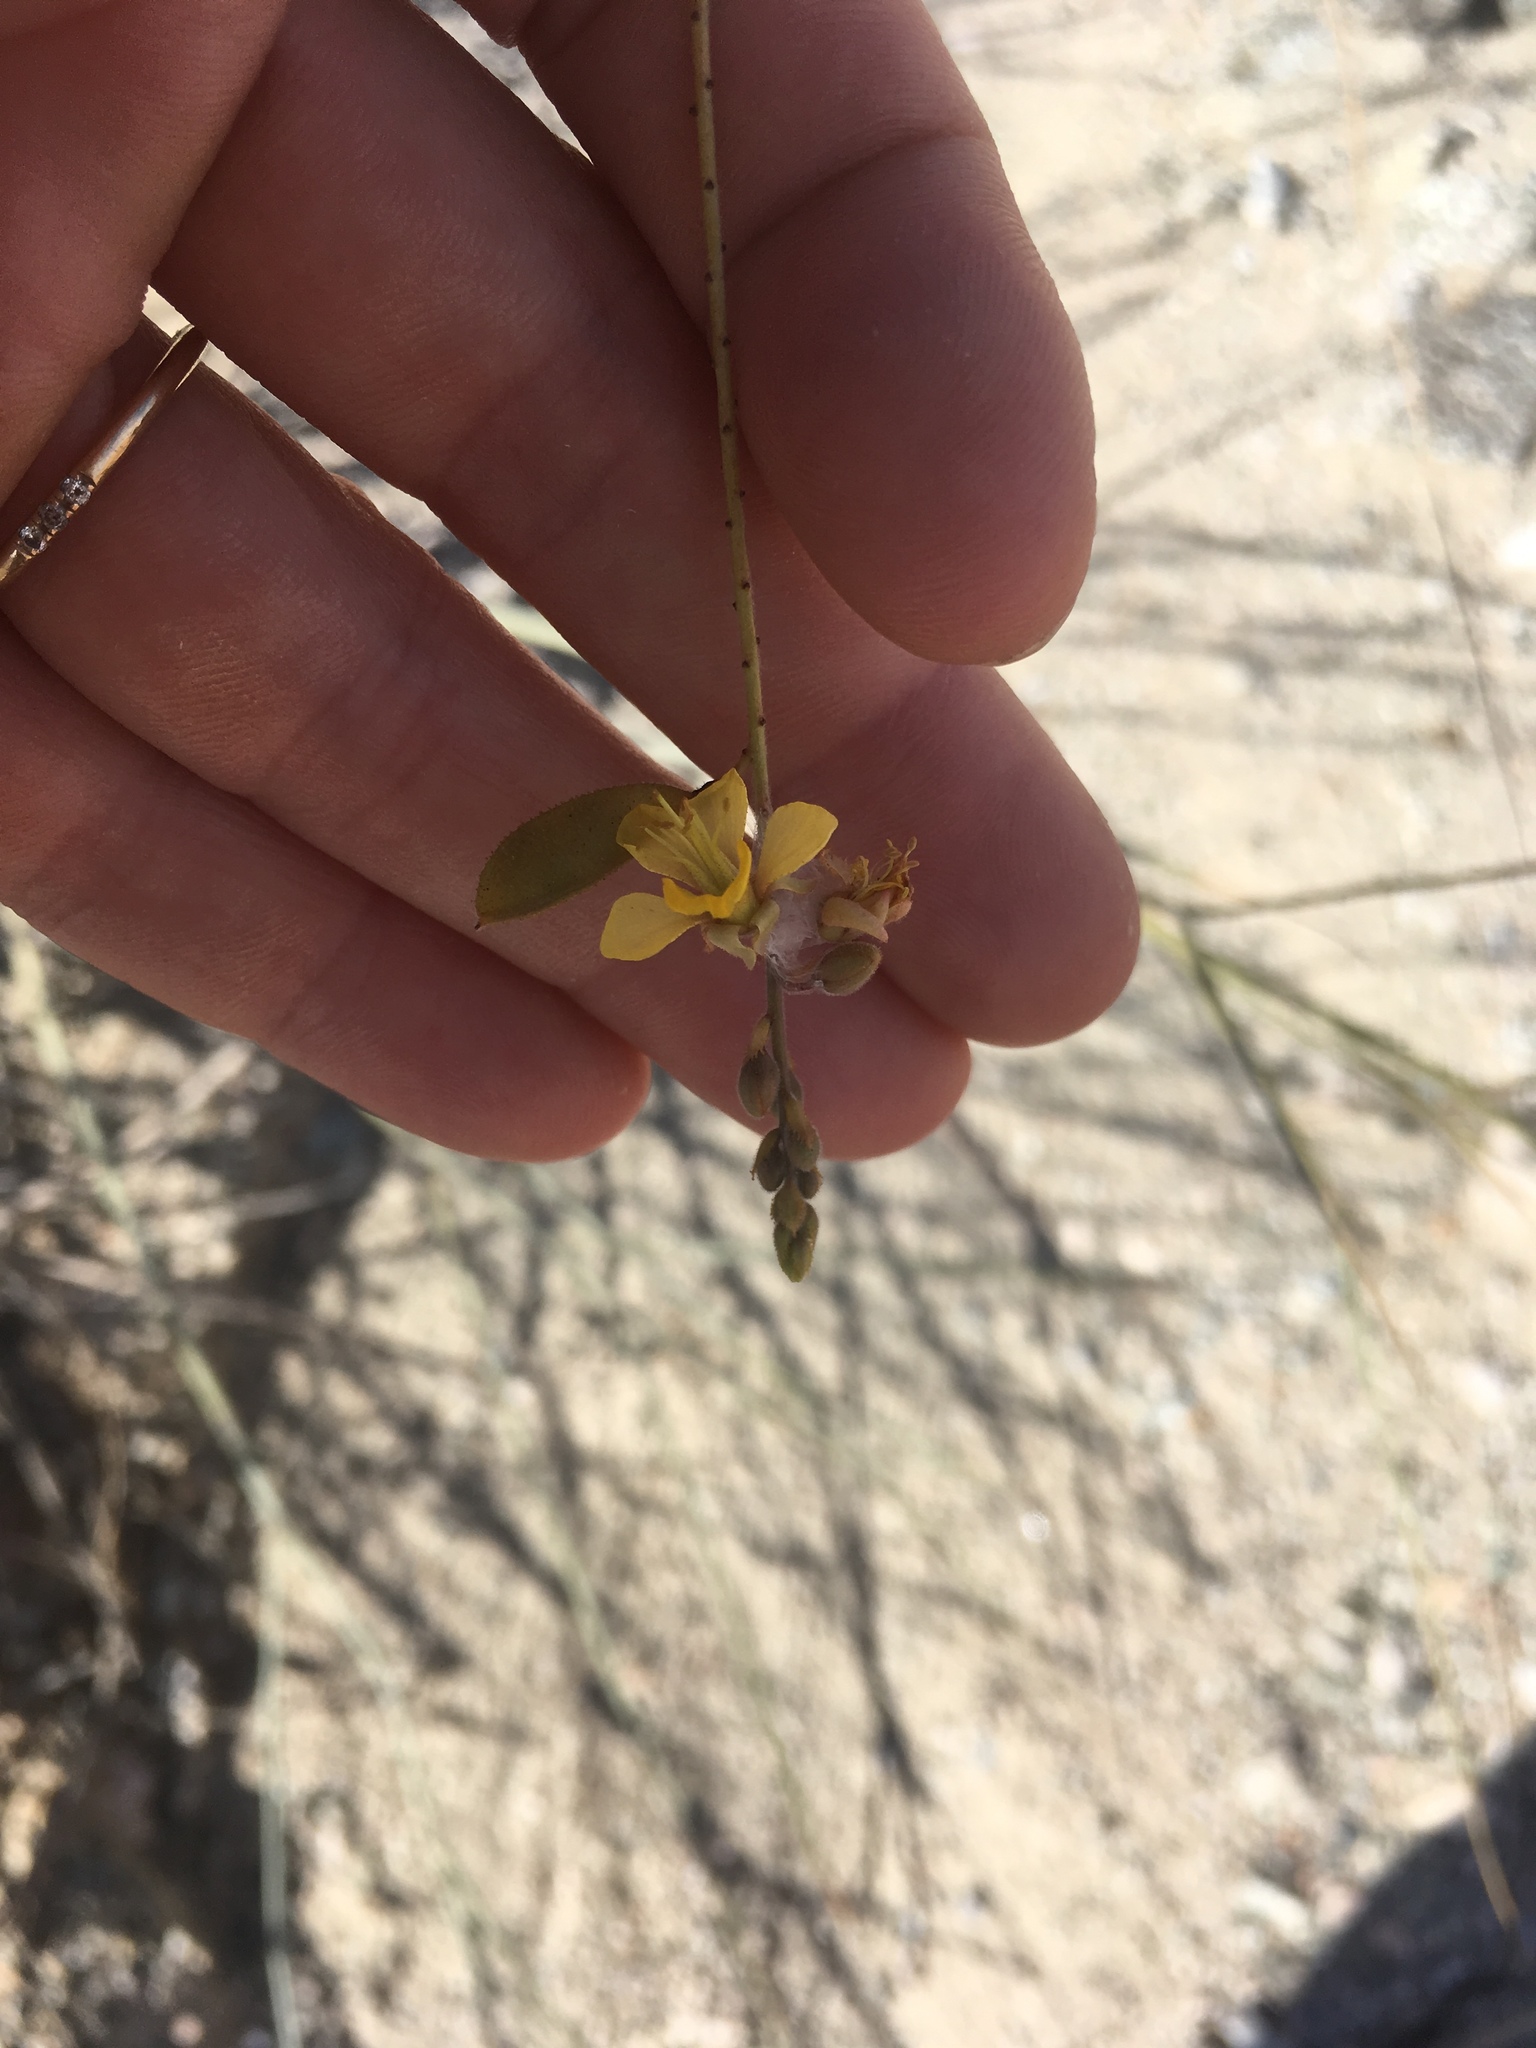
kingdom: Plantae
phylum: Tracheophyta
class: Magnoliopsida
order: Fabales
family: Fabaceae
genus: Hoffmannseggia
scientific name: Hoffmannseggia microphylla
